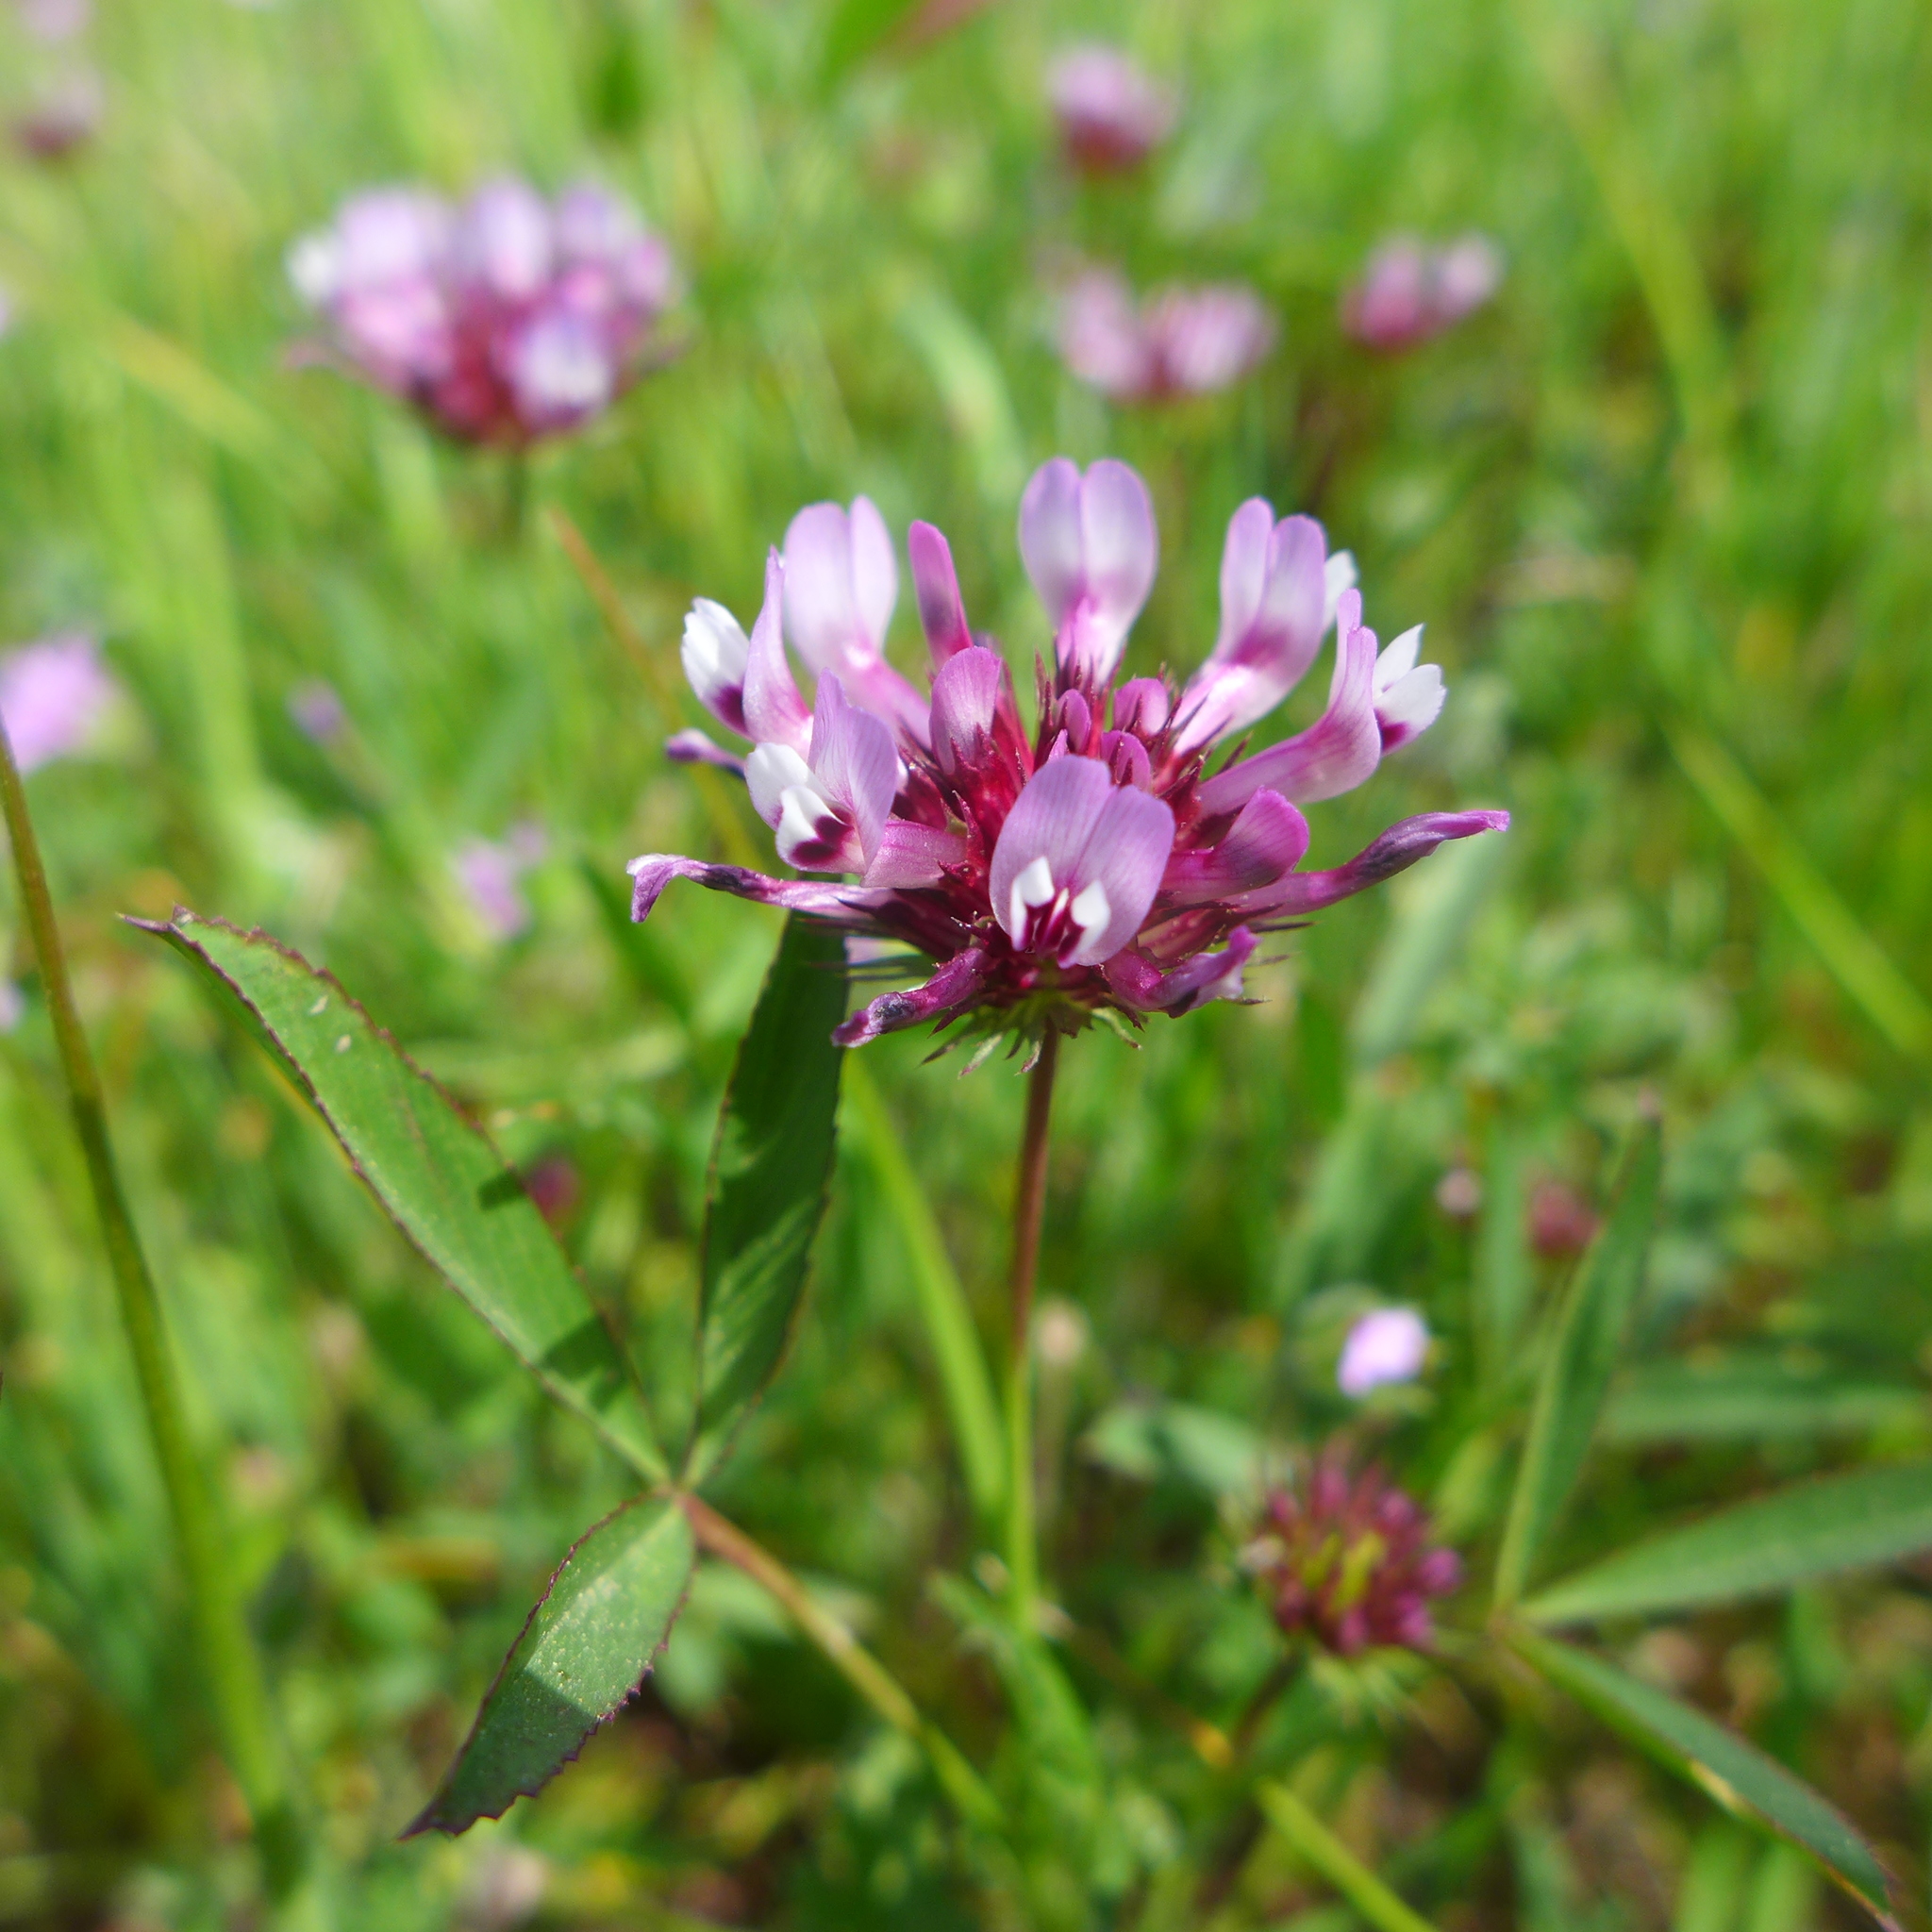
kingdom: Plantae
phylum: Tracheophyta
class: Magnoliopsida
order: Fabales
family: Fabaceae
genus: Trifolium
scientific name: Trifolium willdenovii
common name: Tomcat clover
